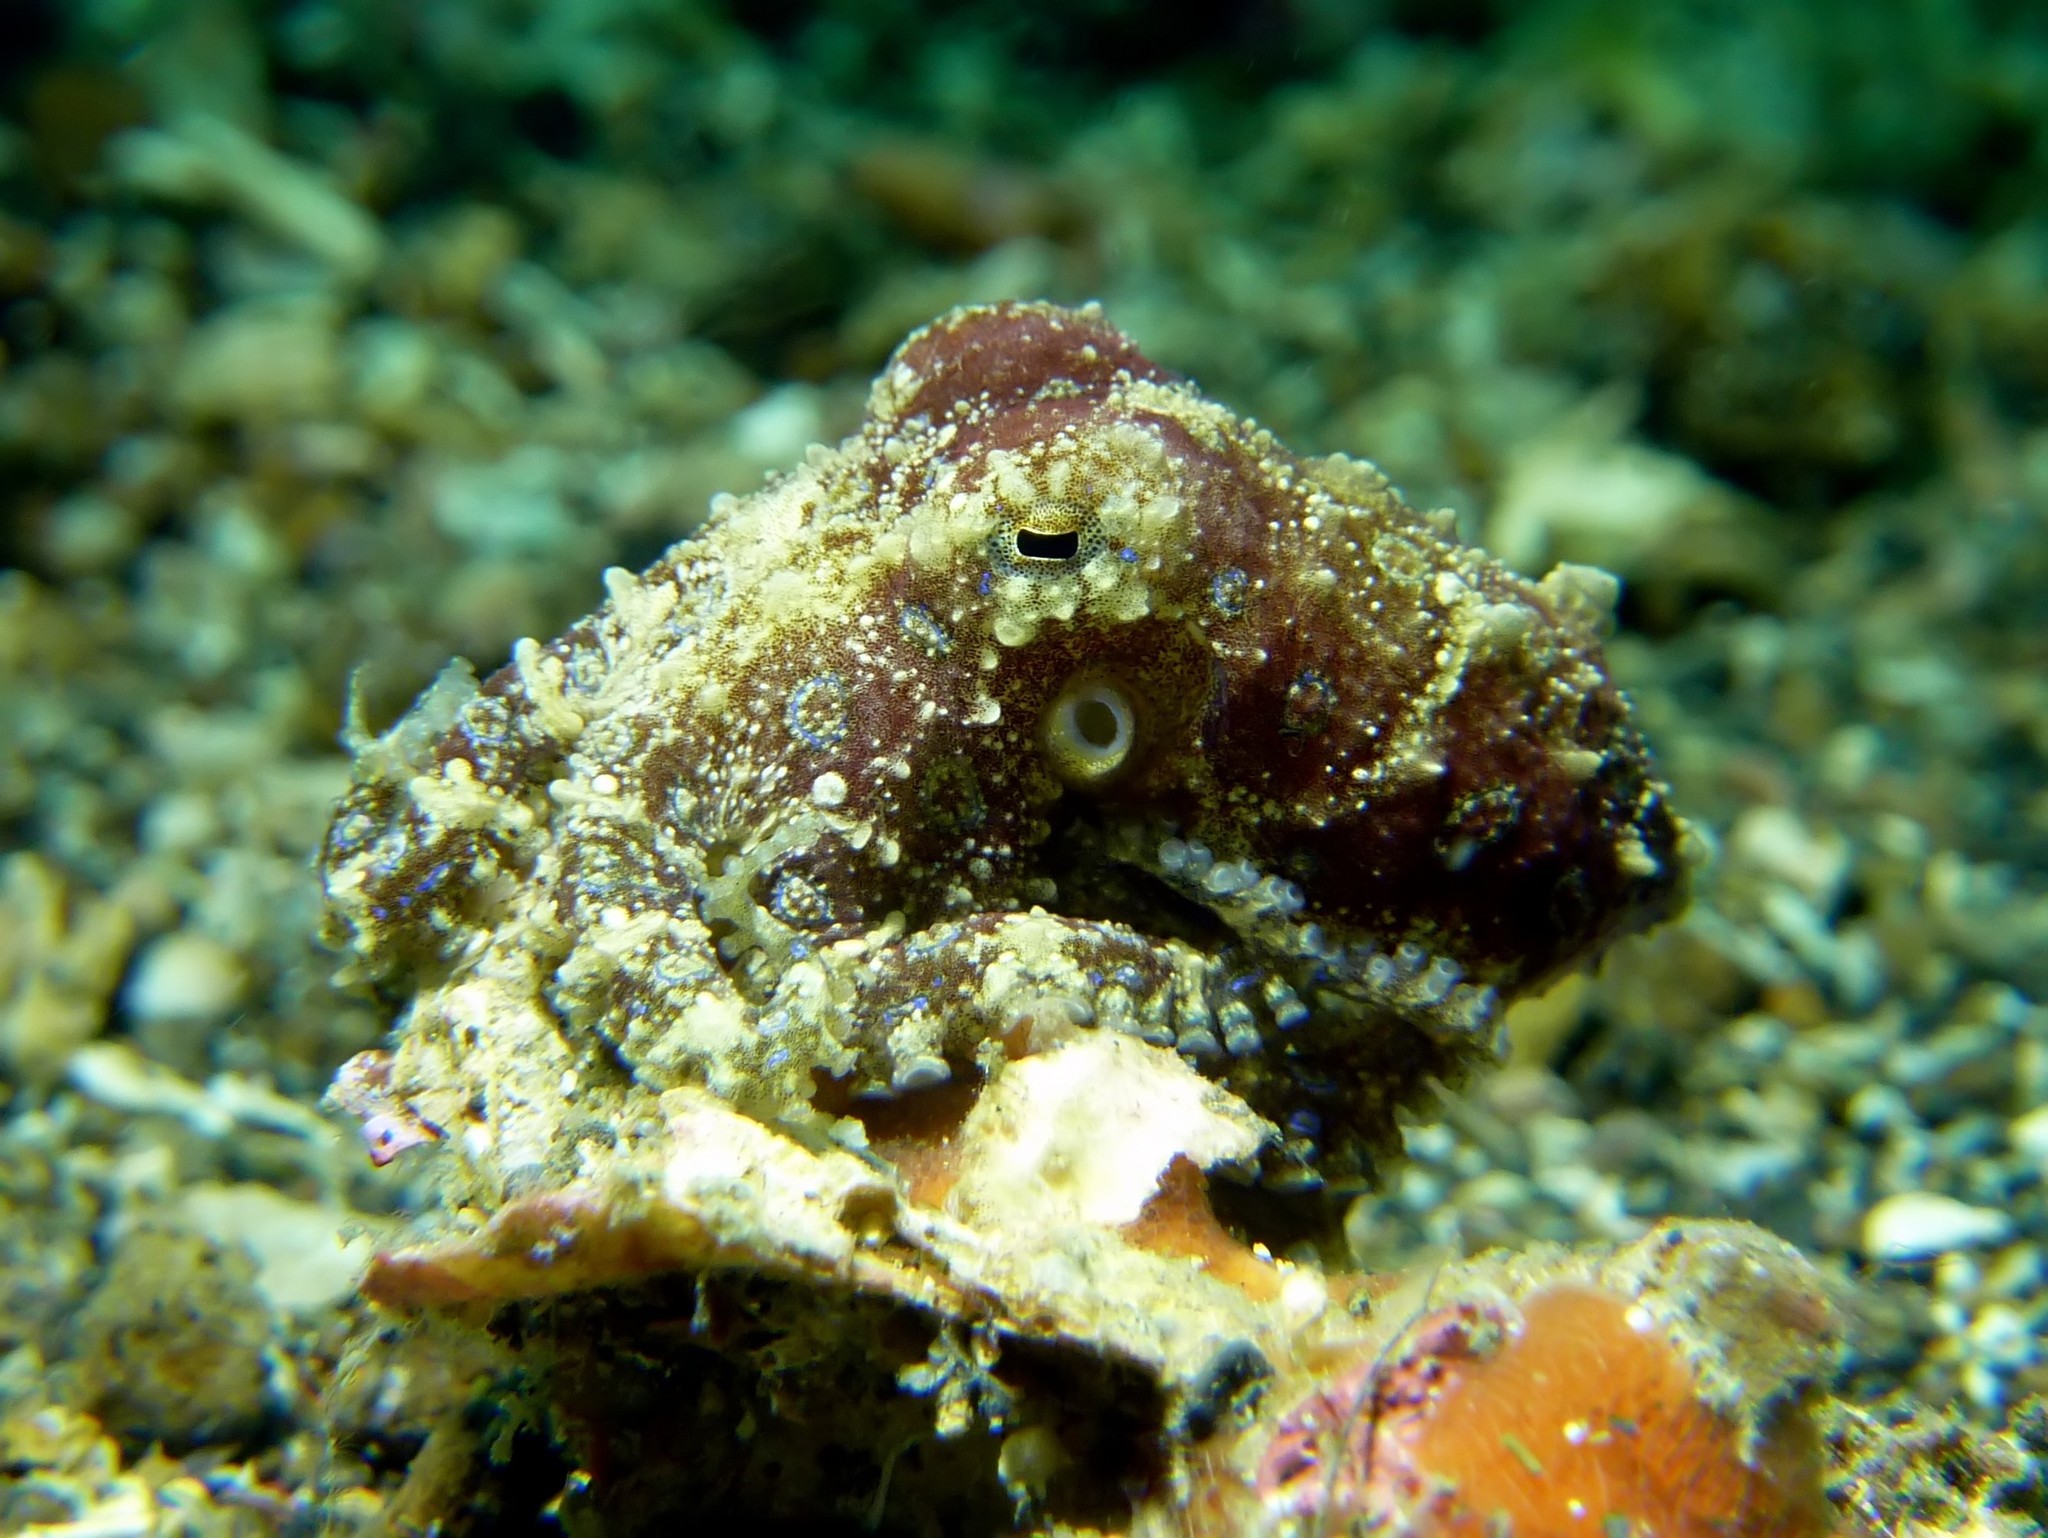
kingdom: Animalia
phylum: Mollusca
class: Cephalopoda
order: Octopoda
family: Octopodidae
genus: Hapalochlaena
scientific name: Hapalochlaena lunulata
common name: Greater blue-ringed octopus
